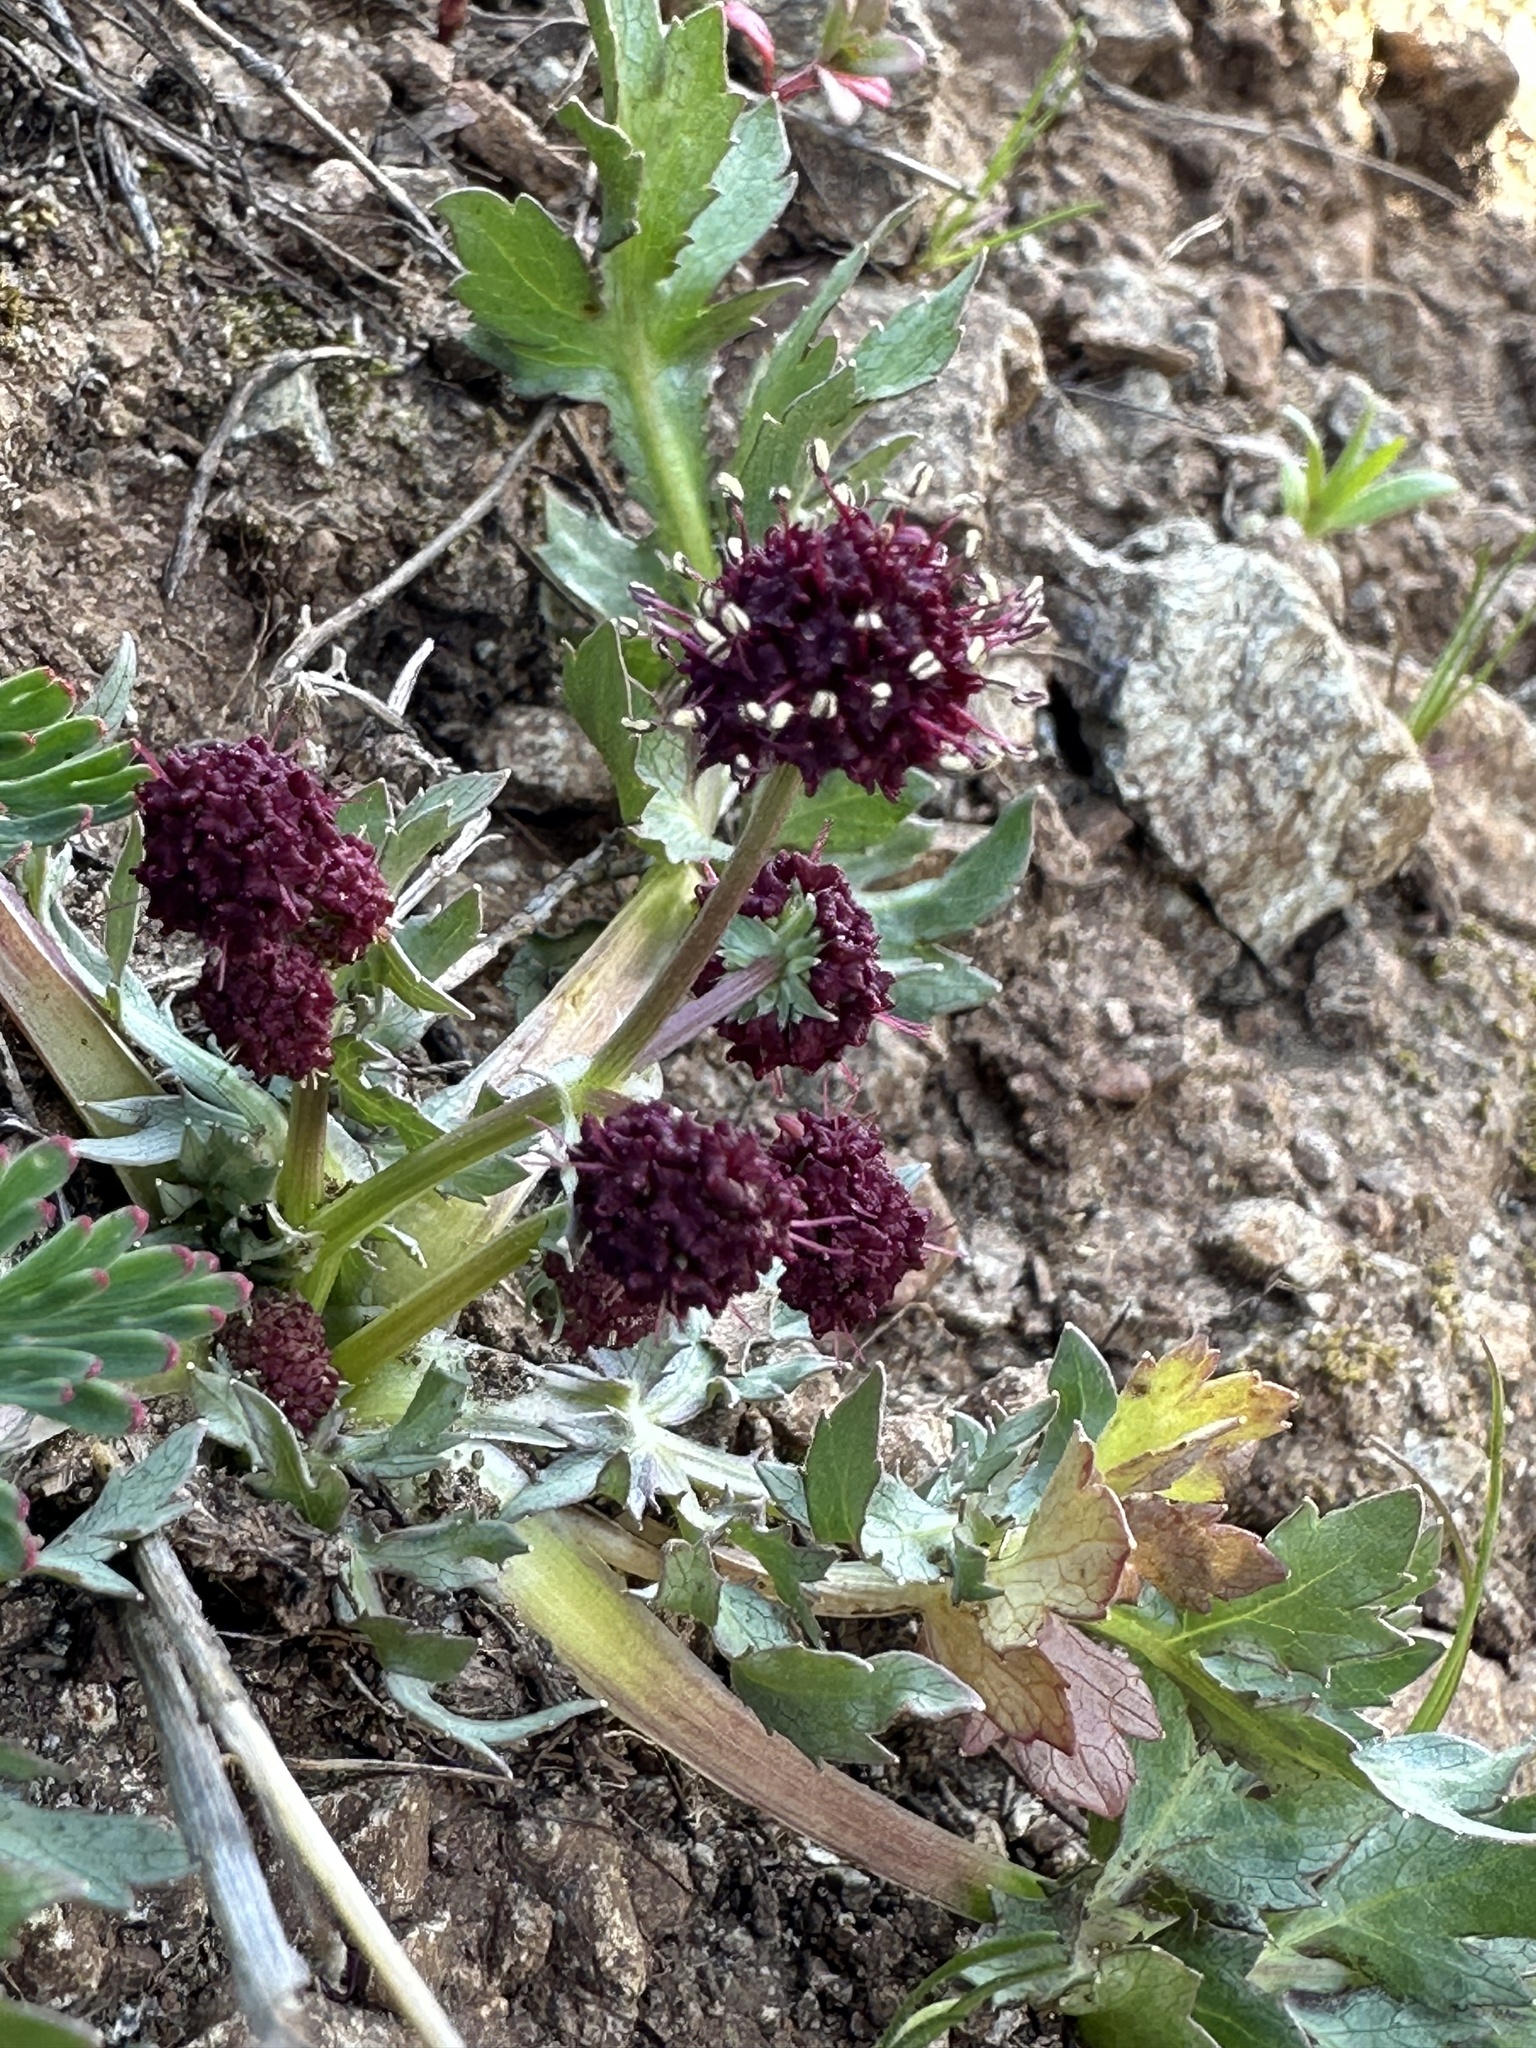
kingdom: Plantae
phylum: Tracheophyta
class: Magnoliopsida
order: Apiales
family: Apiaceae
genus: Sanicula
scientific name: Sanicula bipinnatifida
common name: Shoe-buttons
